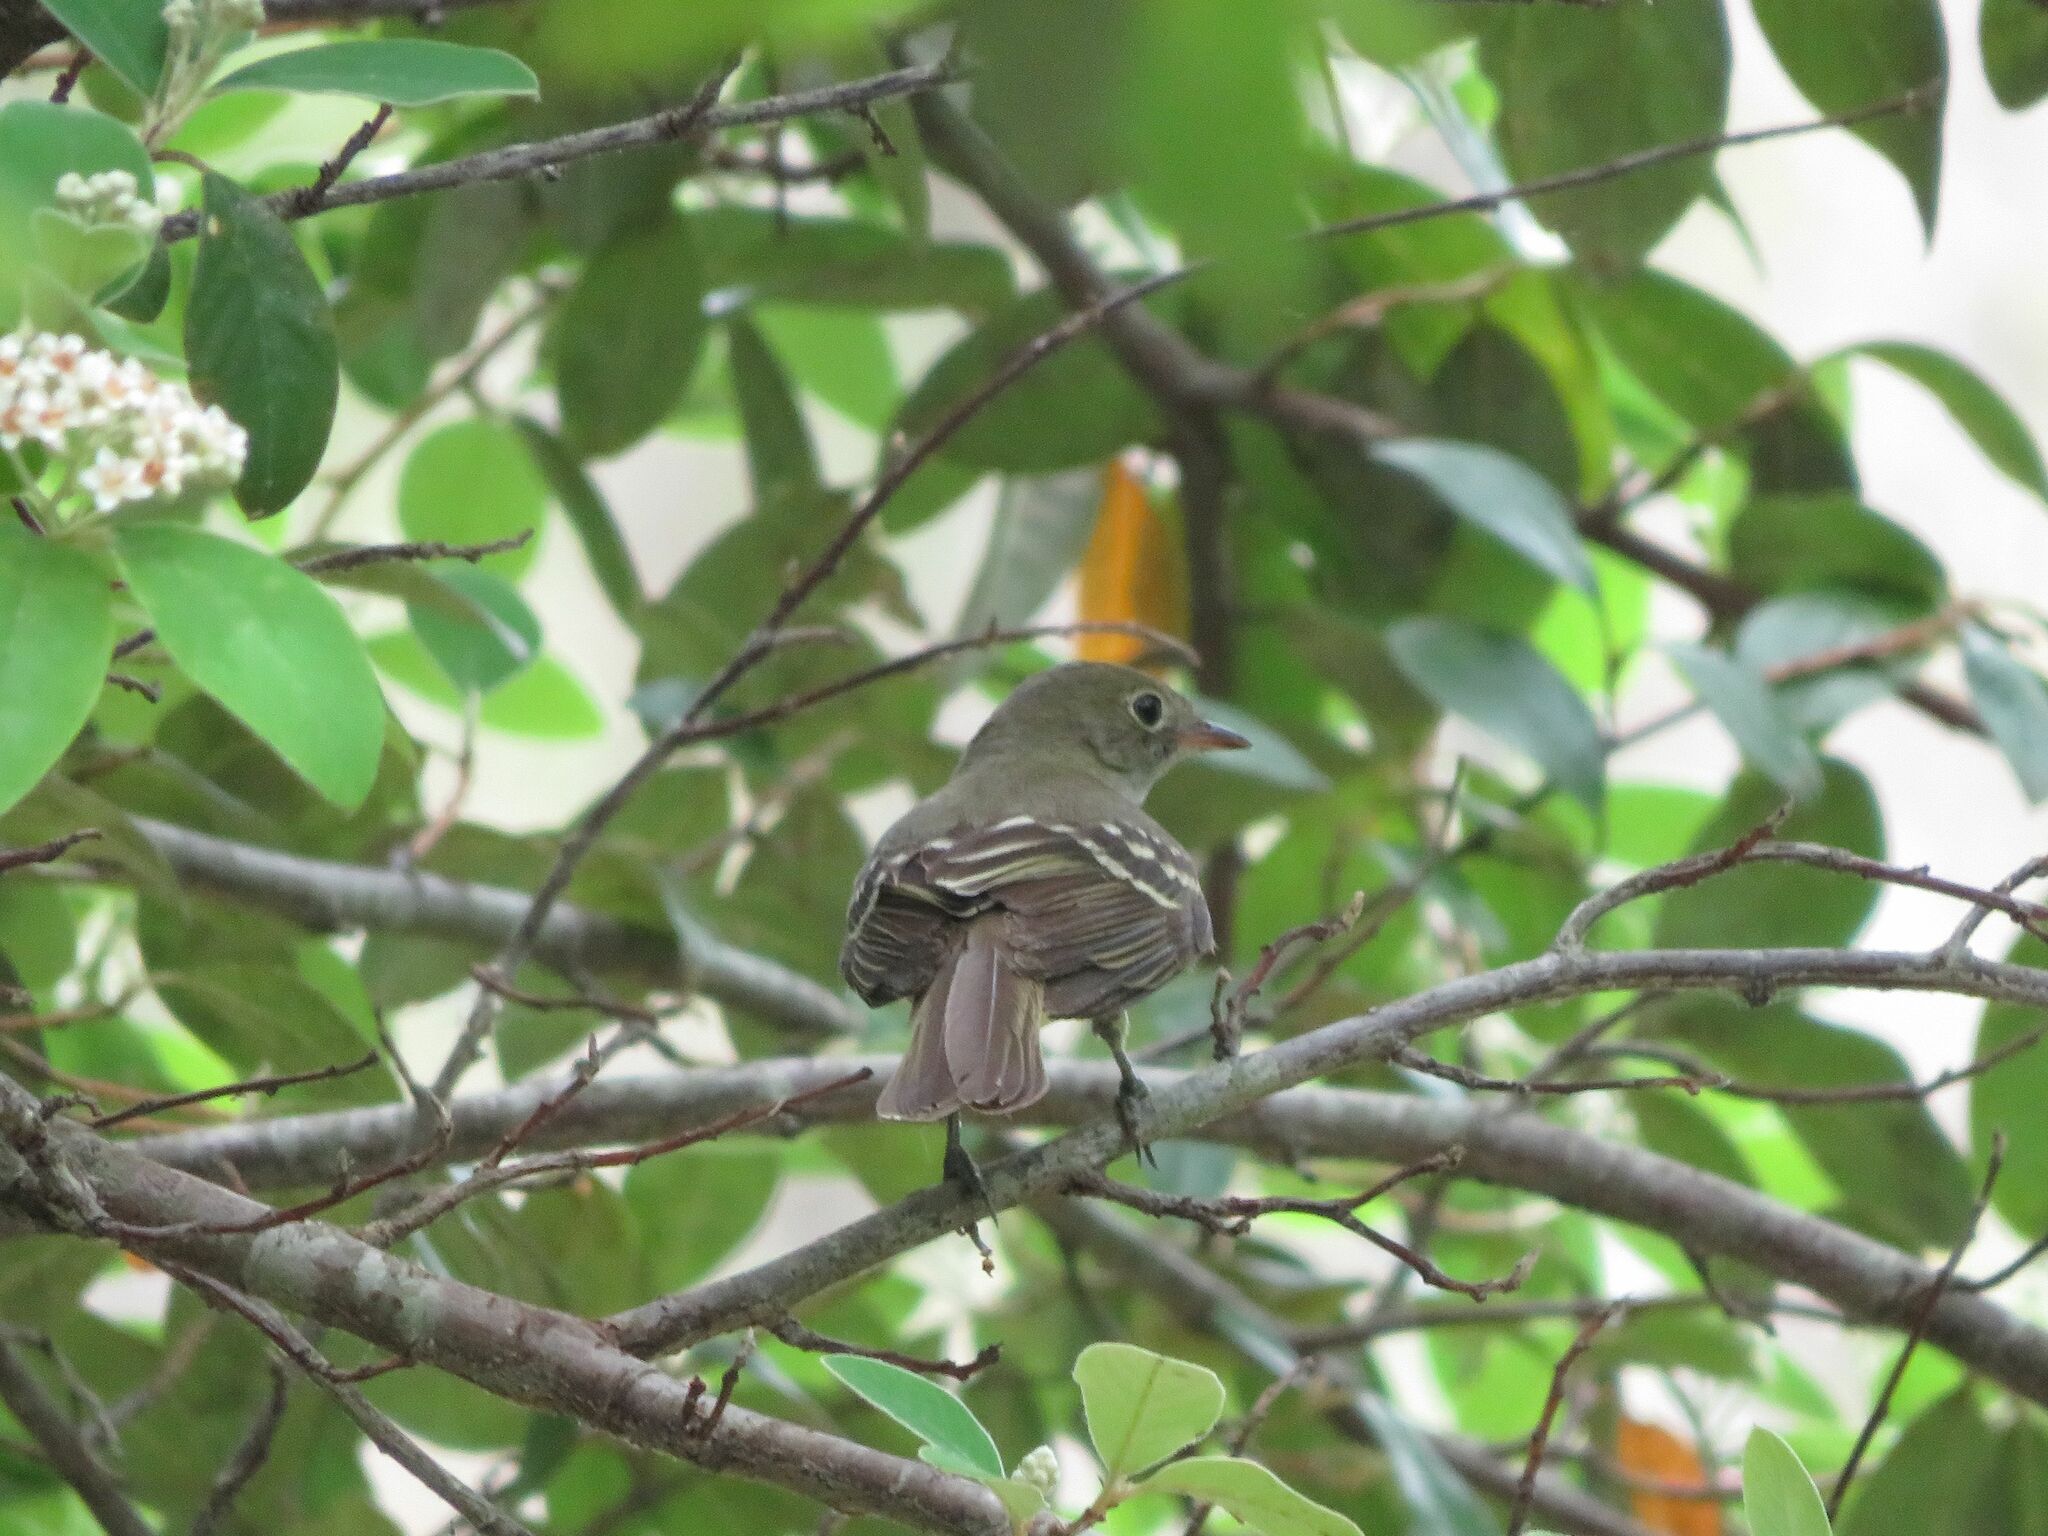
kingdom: Animalia
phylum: Chordata
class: Aves
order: Passeriformes
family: Tyrannidae
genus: Elaenia
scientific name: Elaenia parvirostris
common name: Small-billed elaenia
